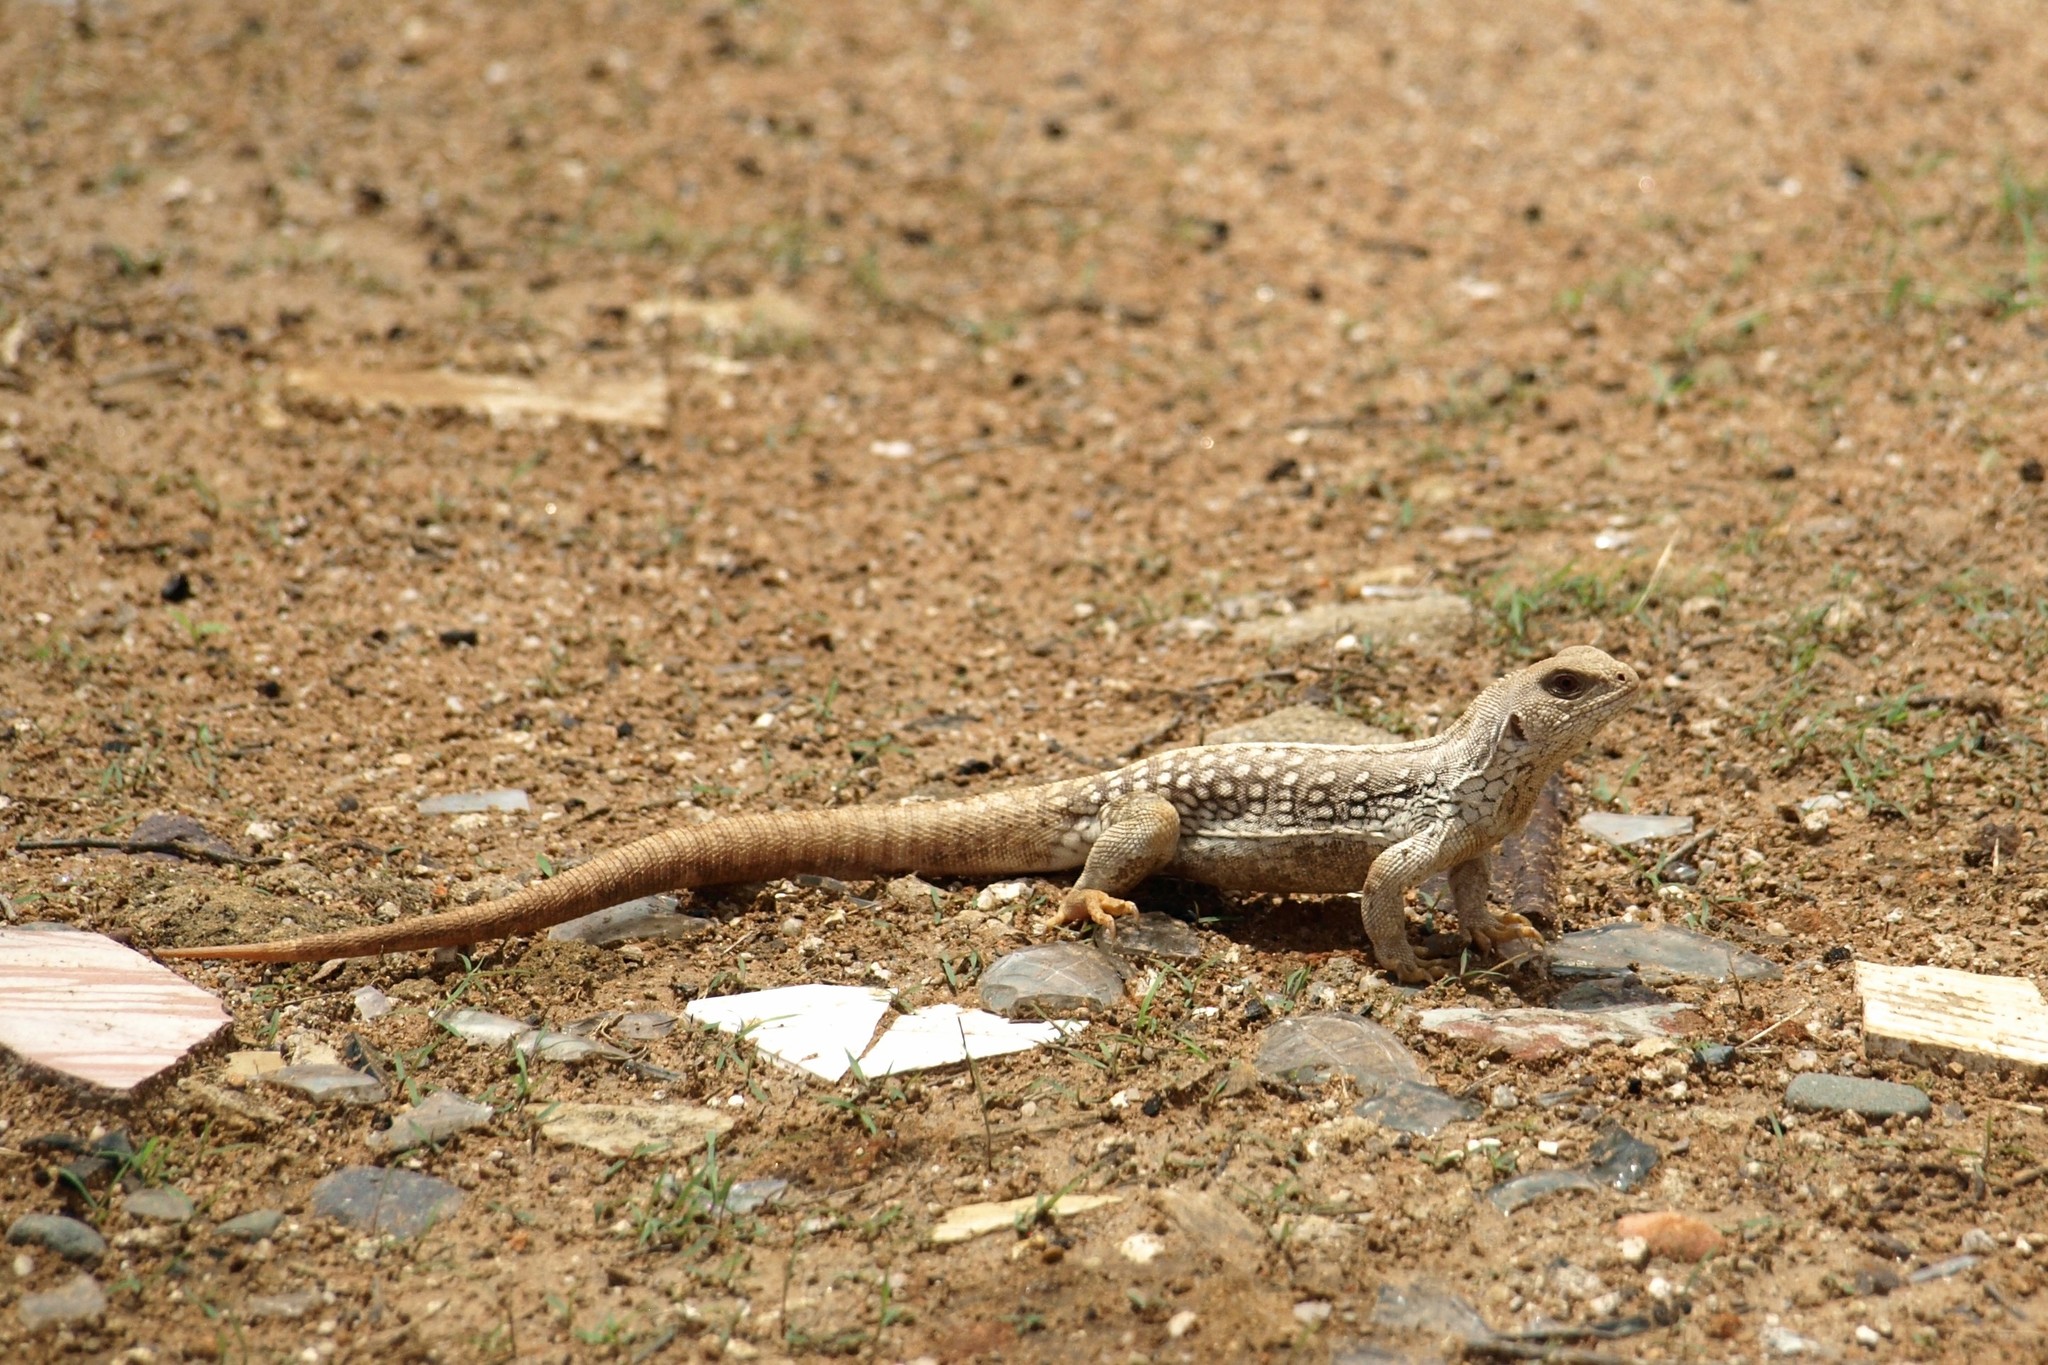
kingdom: Animalia
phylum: Chordata
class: Squamata
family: Iguanidae
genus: Dipsosaurus
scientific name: Dipsosaurus dorsalis
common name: Desert iguana
